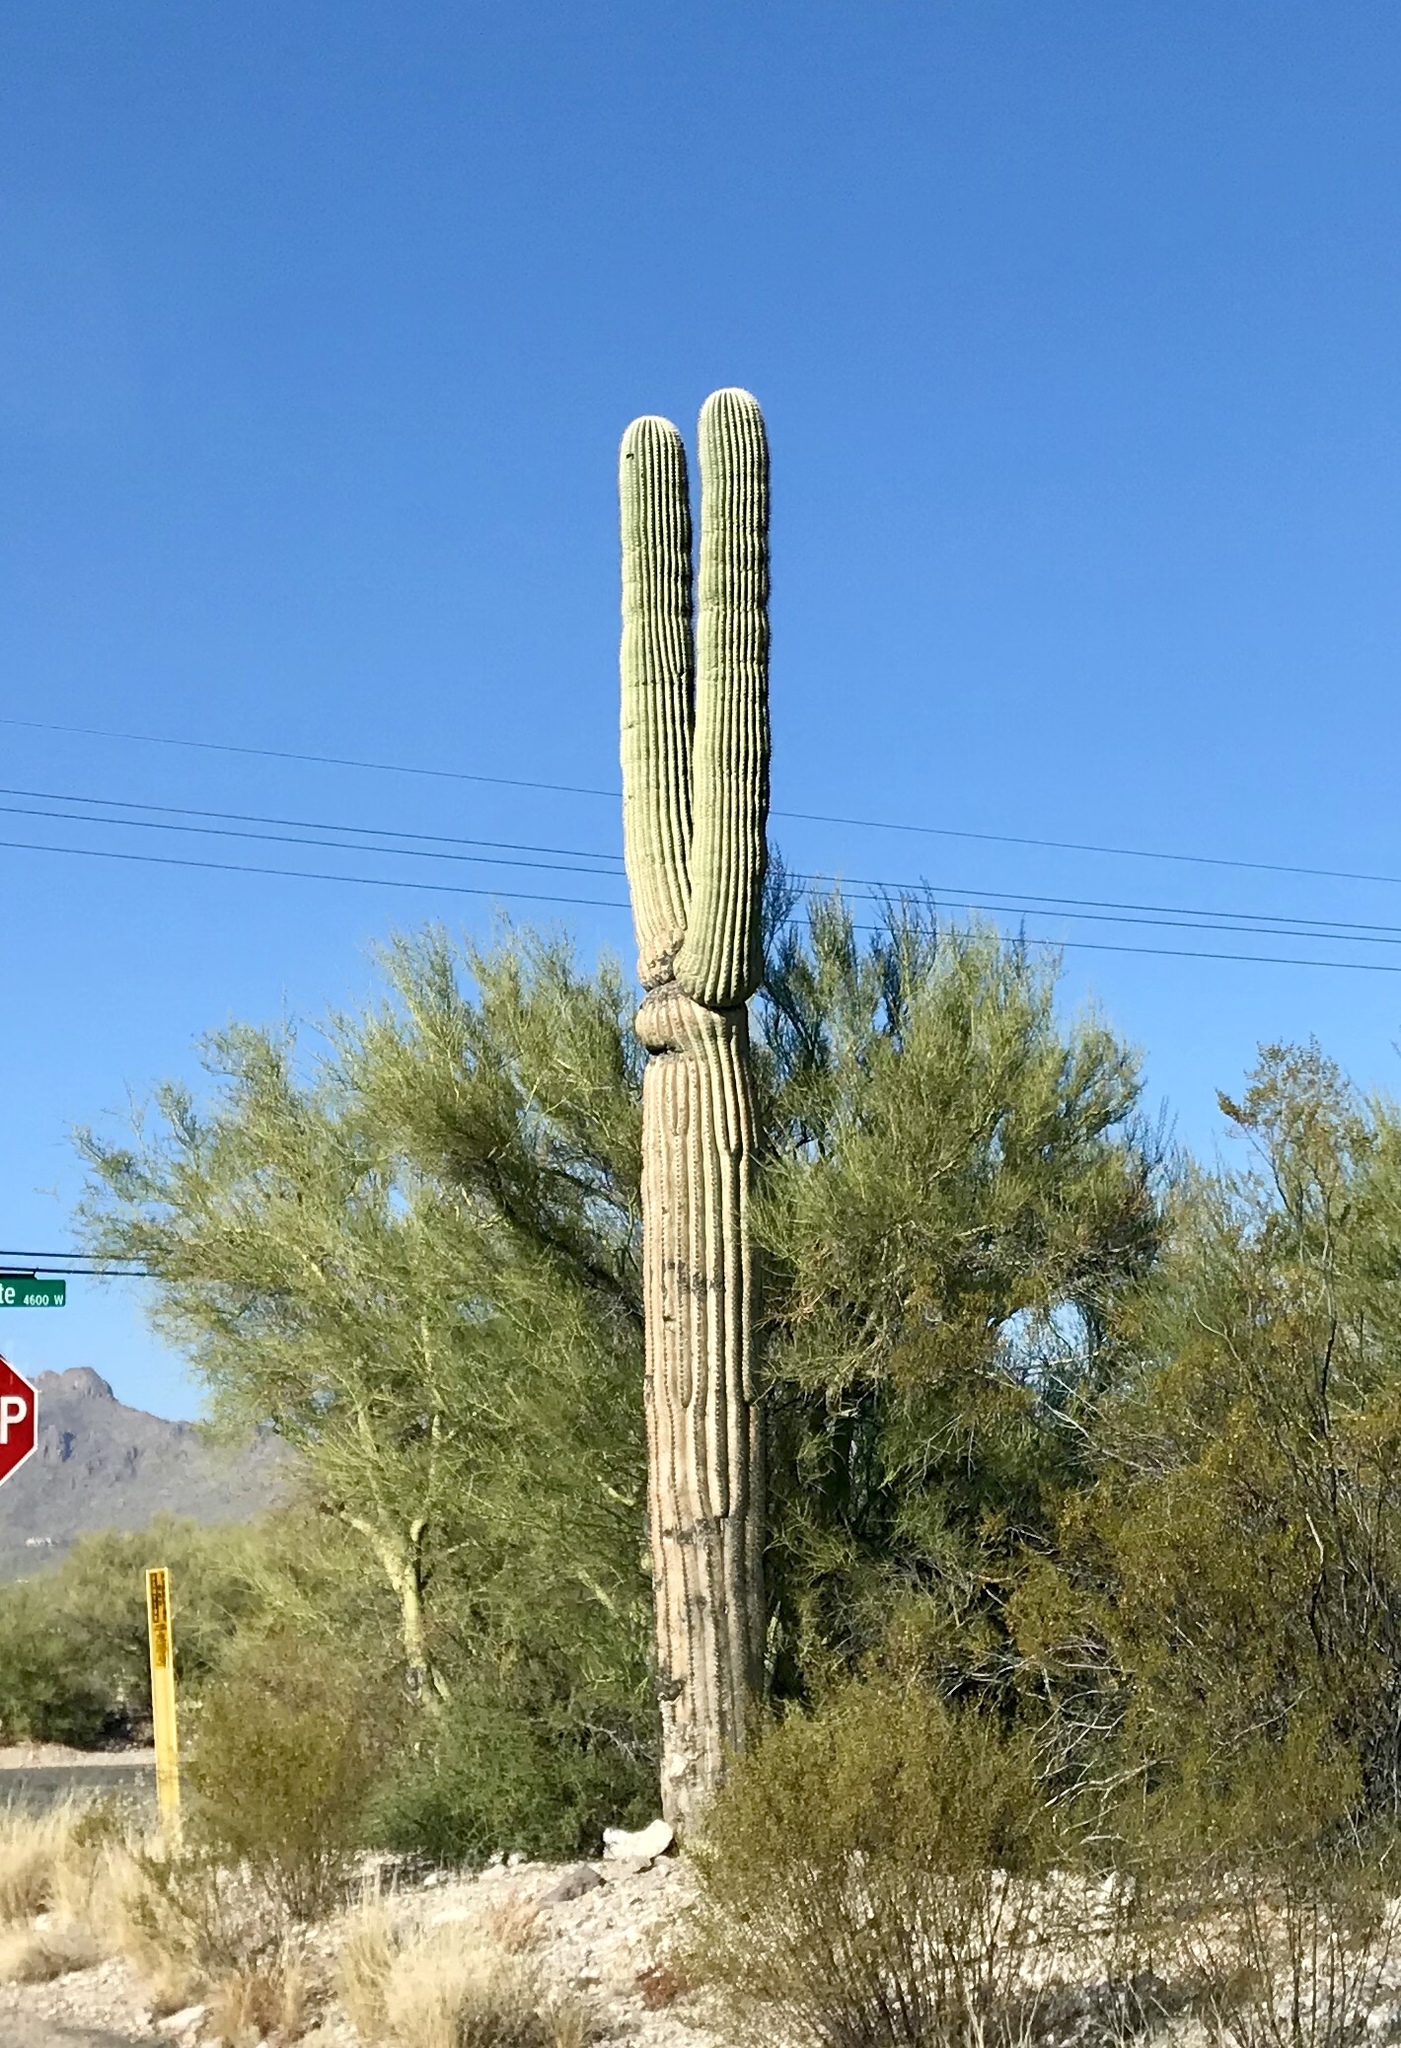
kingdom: Plantae
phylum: Tracheophyta
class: Magnoliopsida
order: Caryophyllales
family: Cactaceae
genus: Carnegiea
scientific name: Carnegiea gigantea
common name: Saguaro
